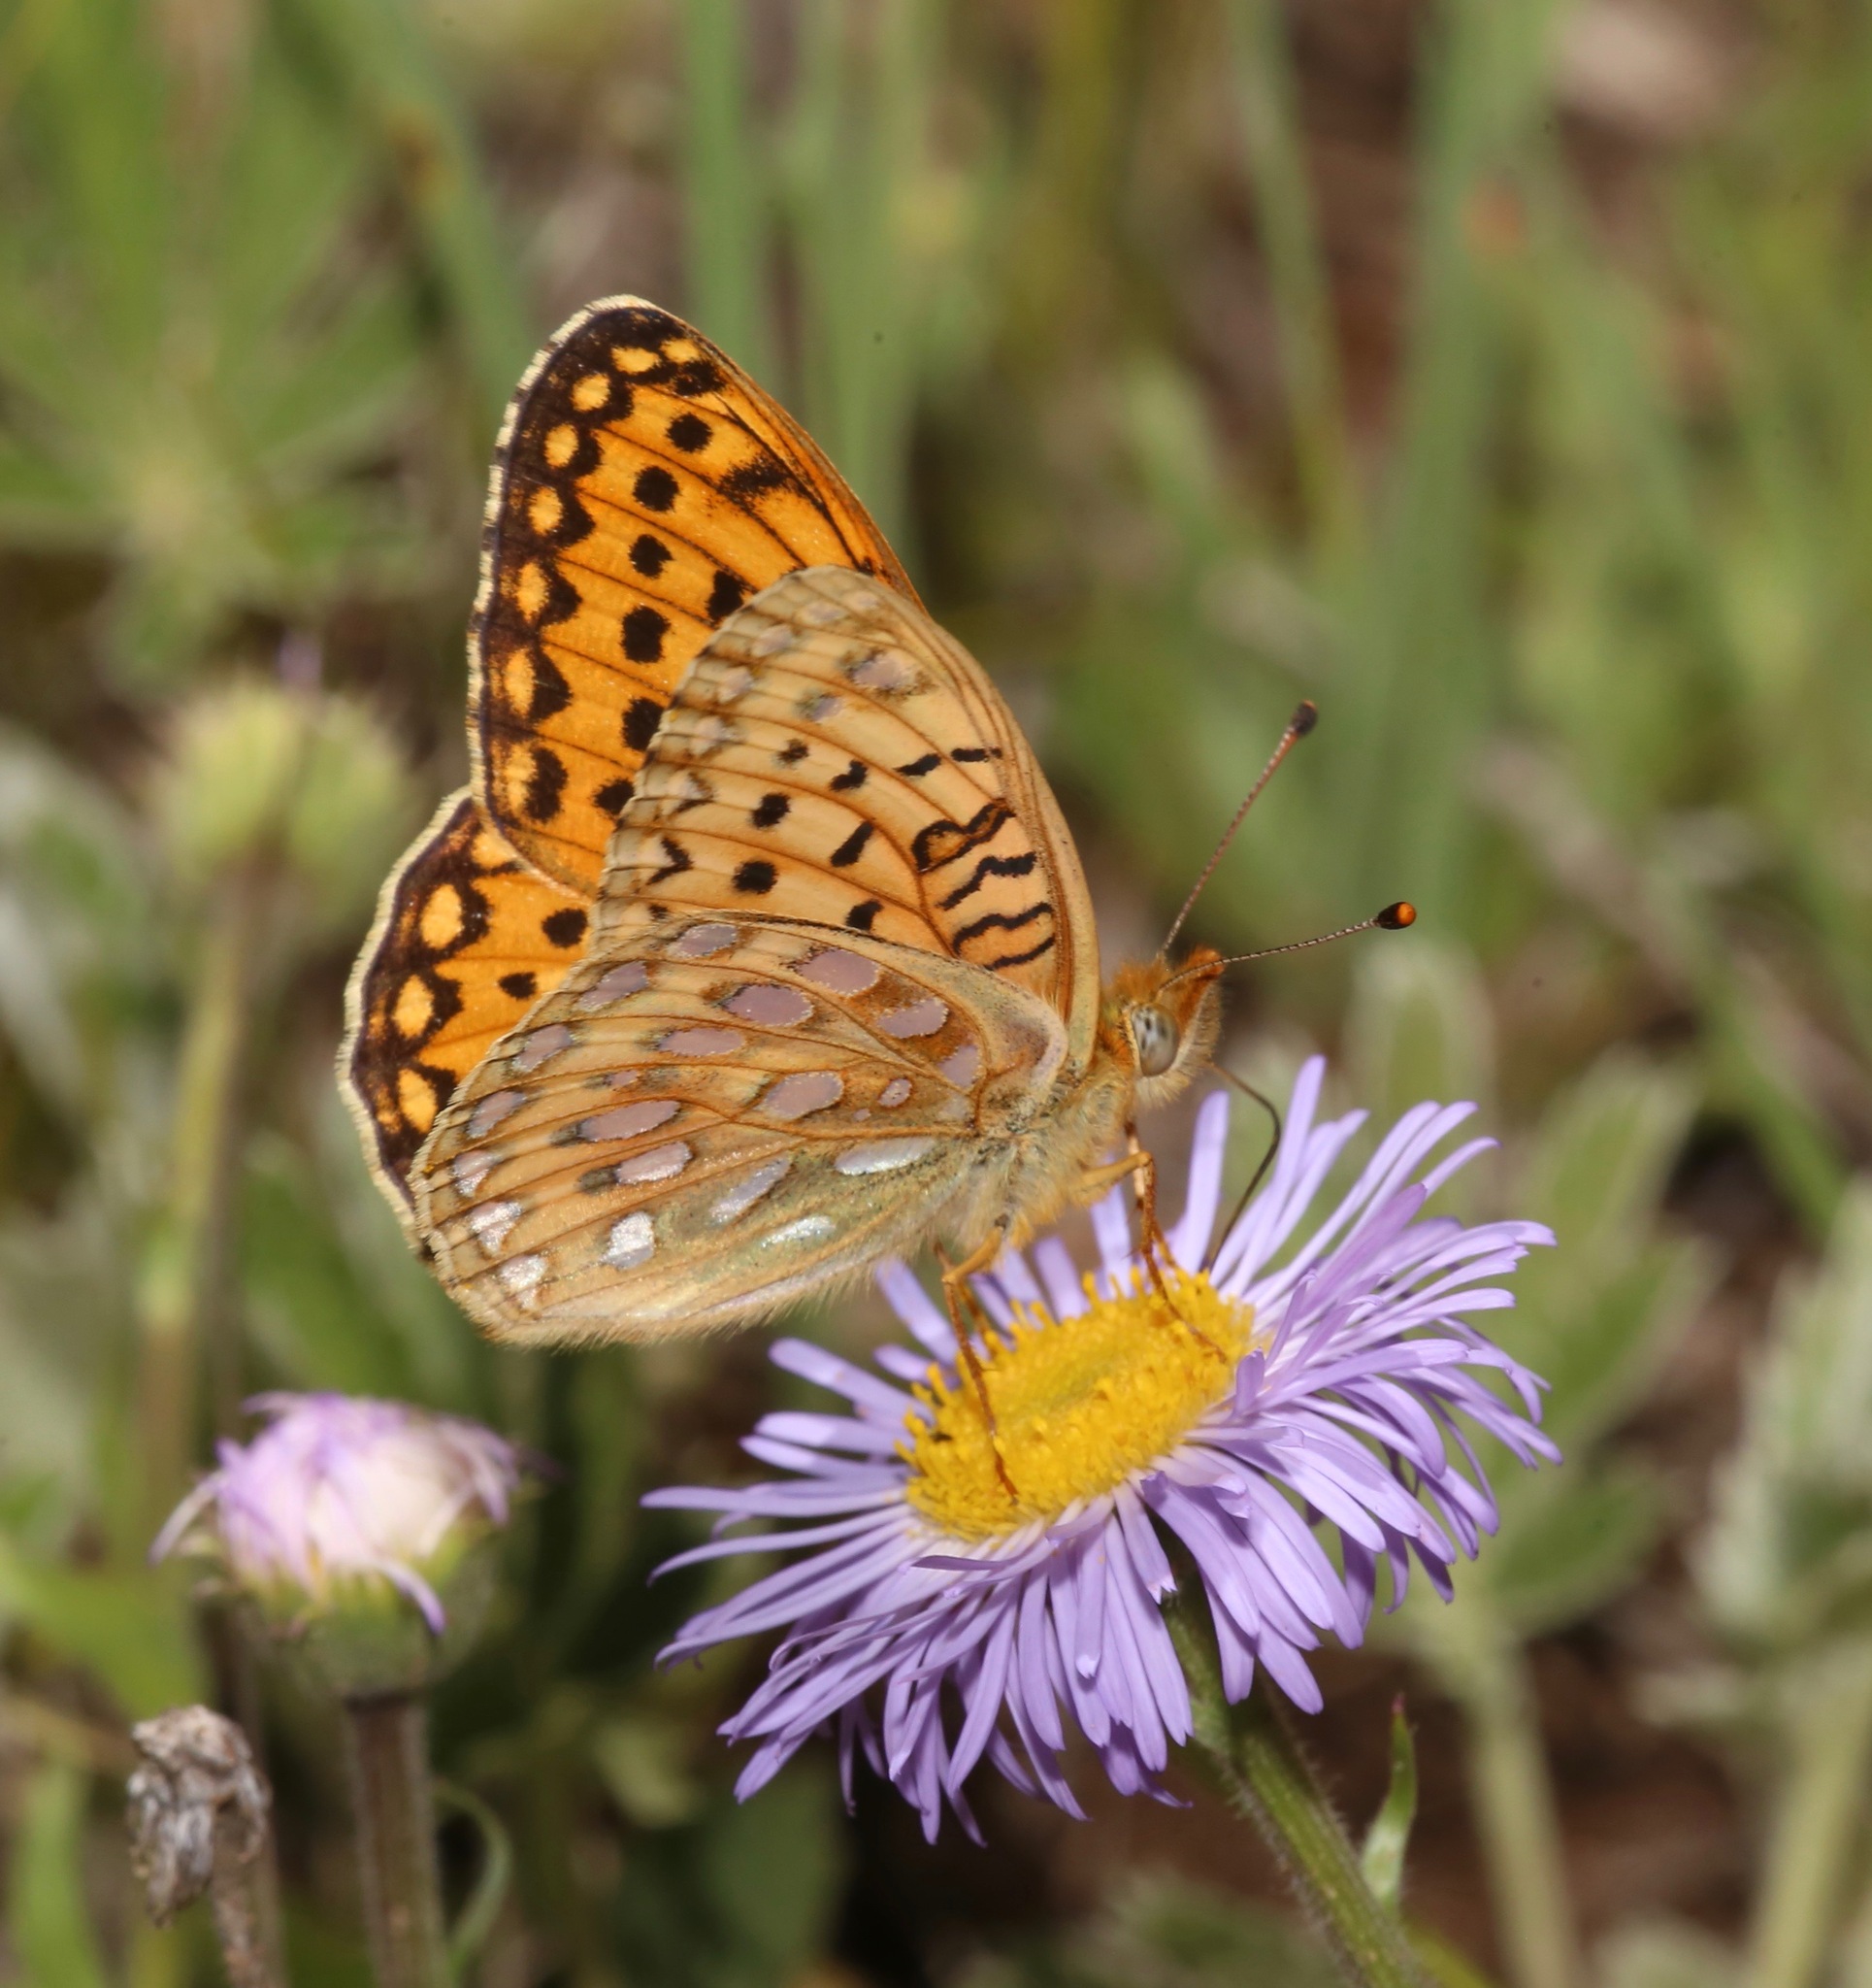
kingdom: Animalia
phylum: Arthropoda
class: Insecta
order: Lepidoptera
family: Nymphalidae
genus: Speyeria
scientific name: Speyeria mormonia
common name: Mormon fritillary
